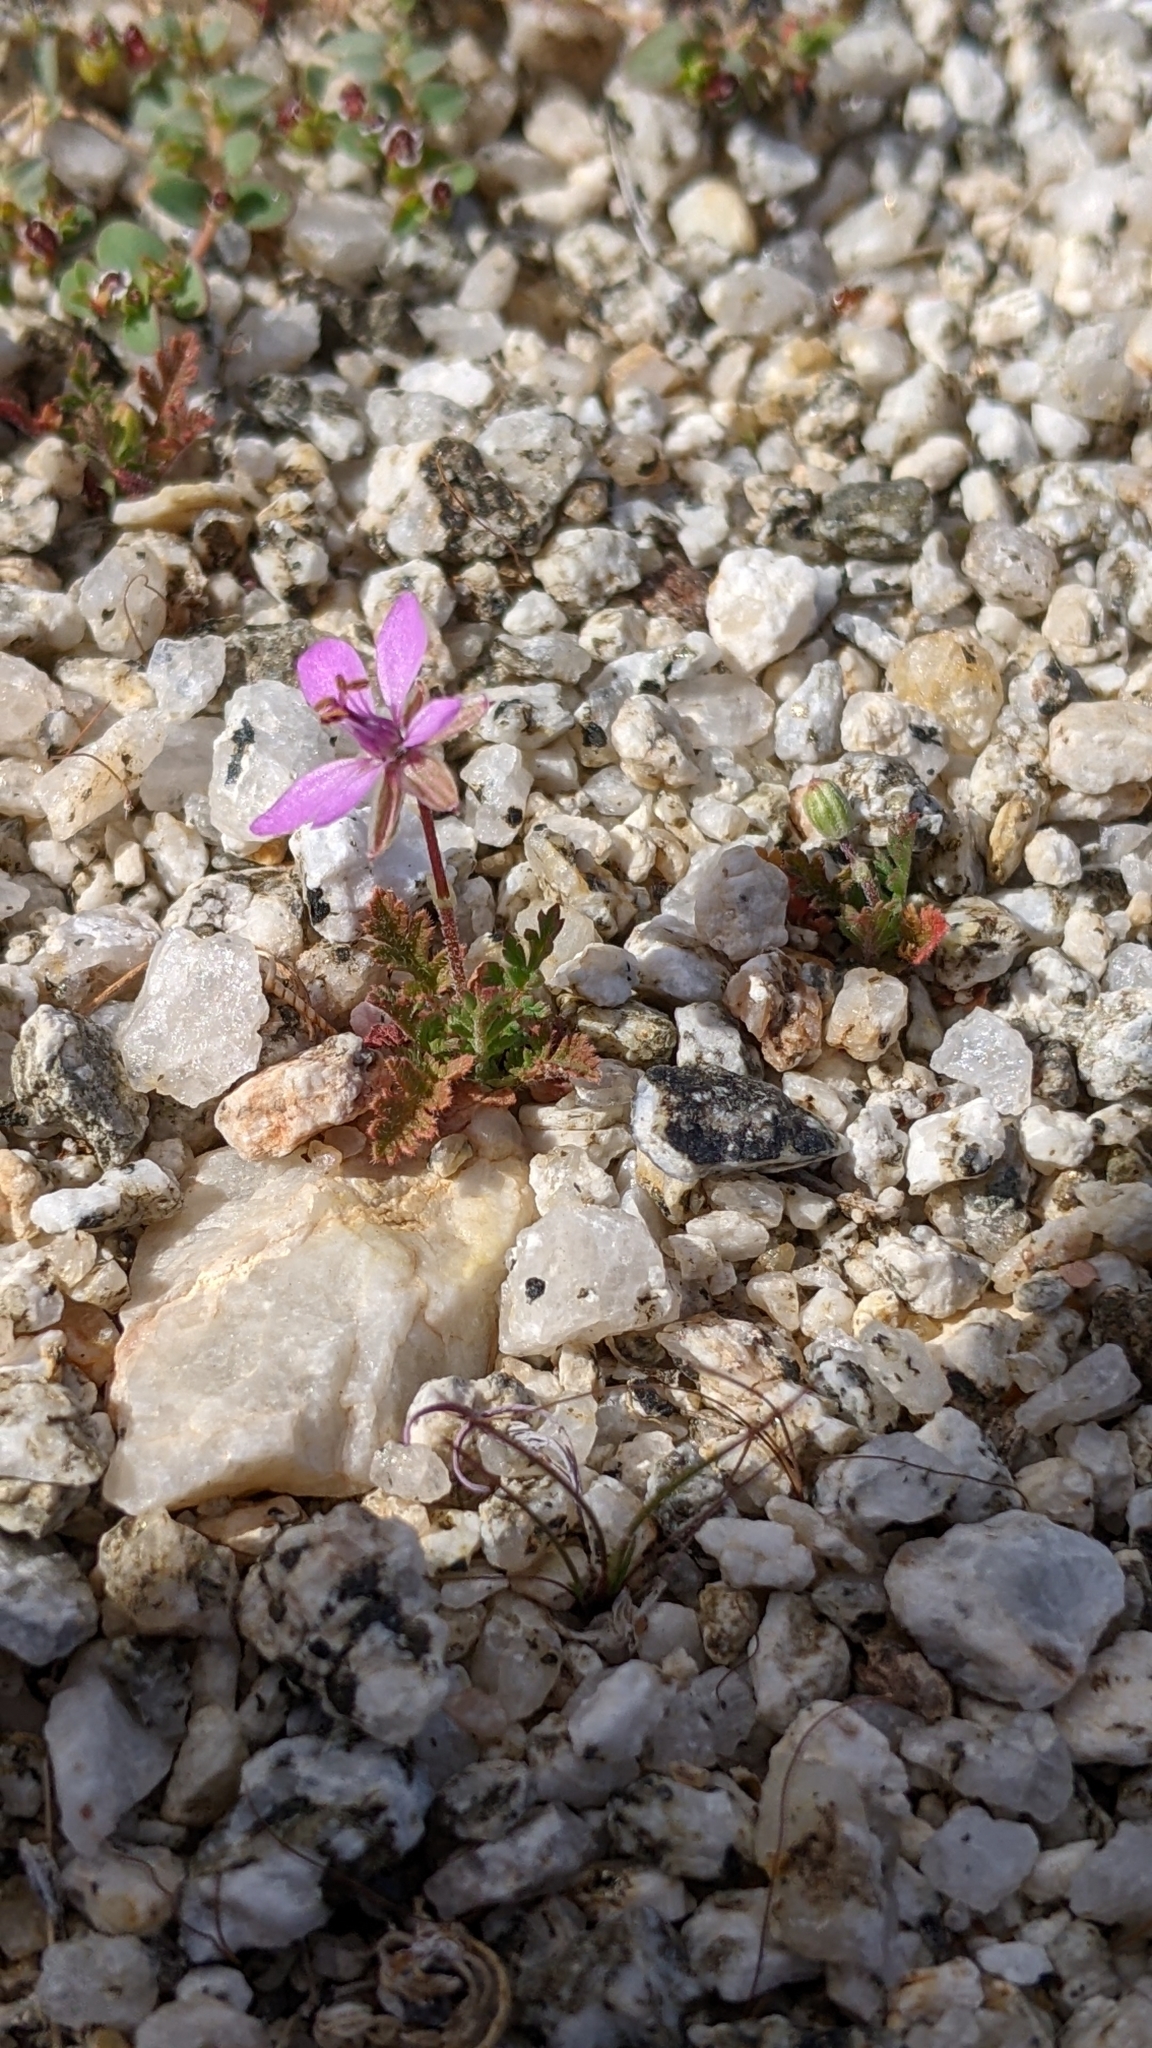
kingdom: Plantae
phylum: Tracheophyta
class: Magnoliopsida
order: Geraniales
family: Geraniaceae
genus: Erodium
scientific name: Erodium cicutarium
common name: Common stork's-bill
